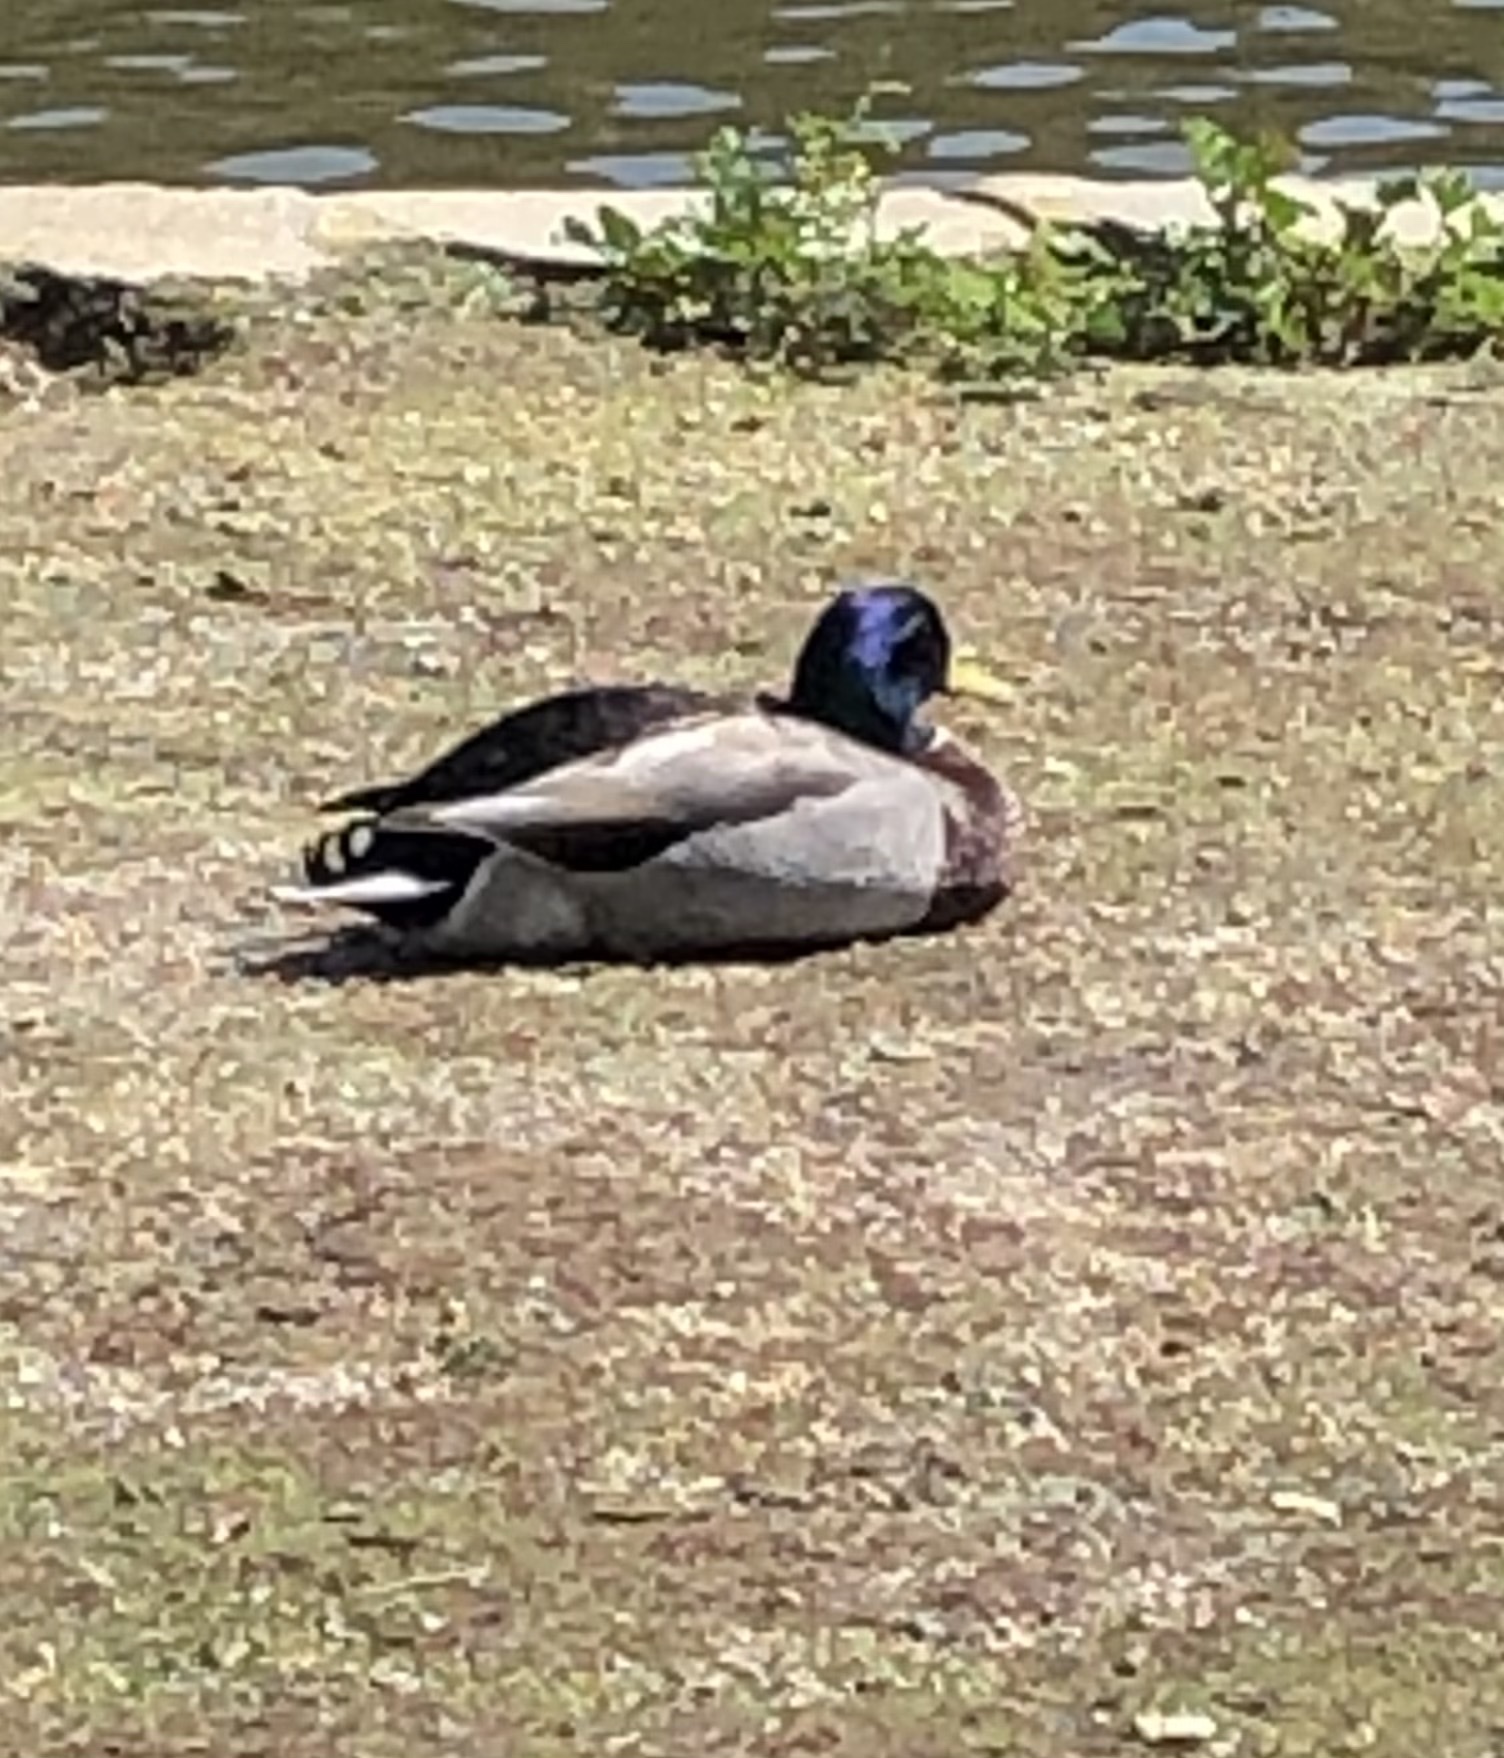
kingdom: Animalia
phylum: Chordata
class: Aves
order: Anseriformes
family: Anatidae
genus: Anas
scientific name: Anas platyrhynchos
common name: Mallard
